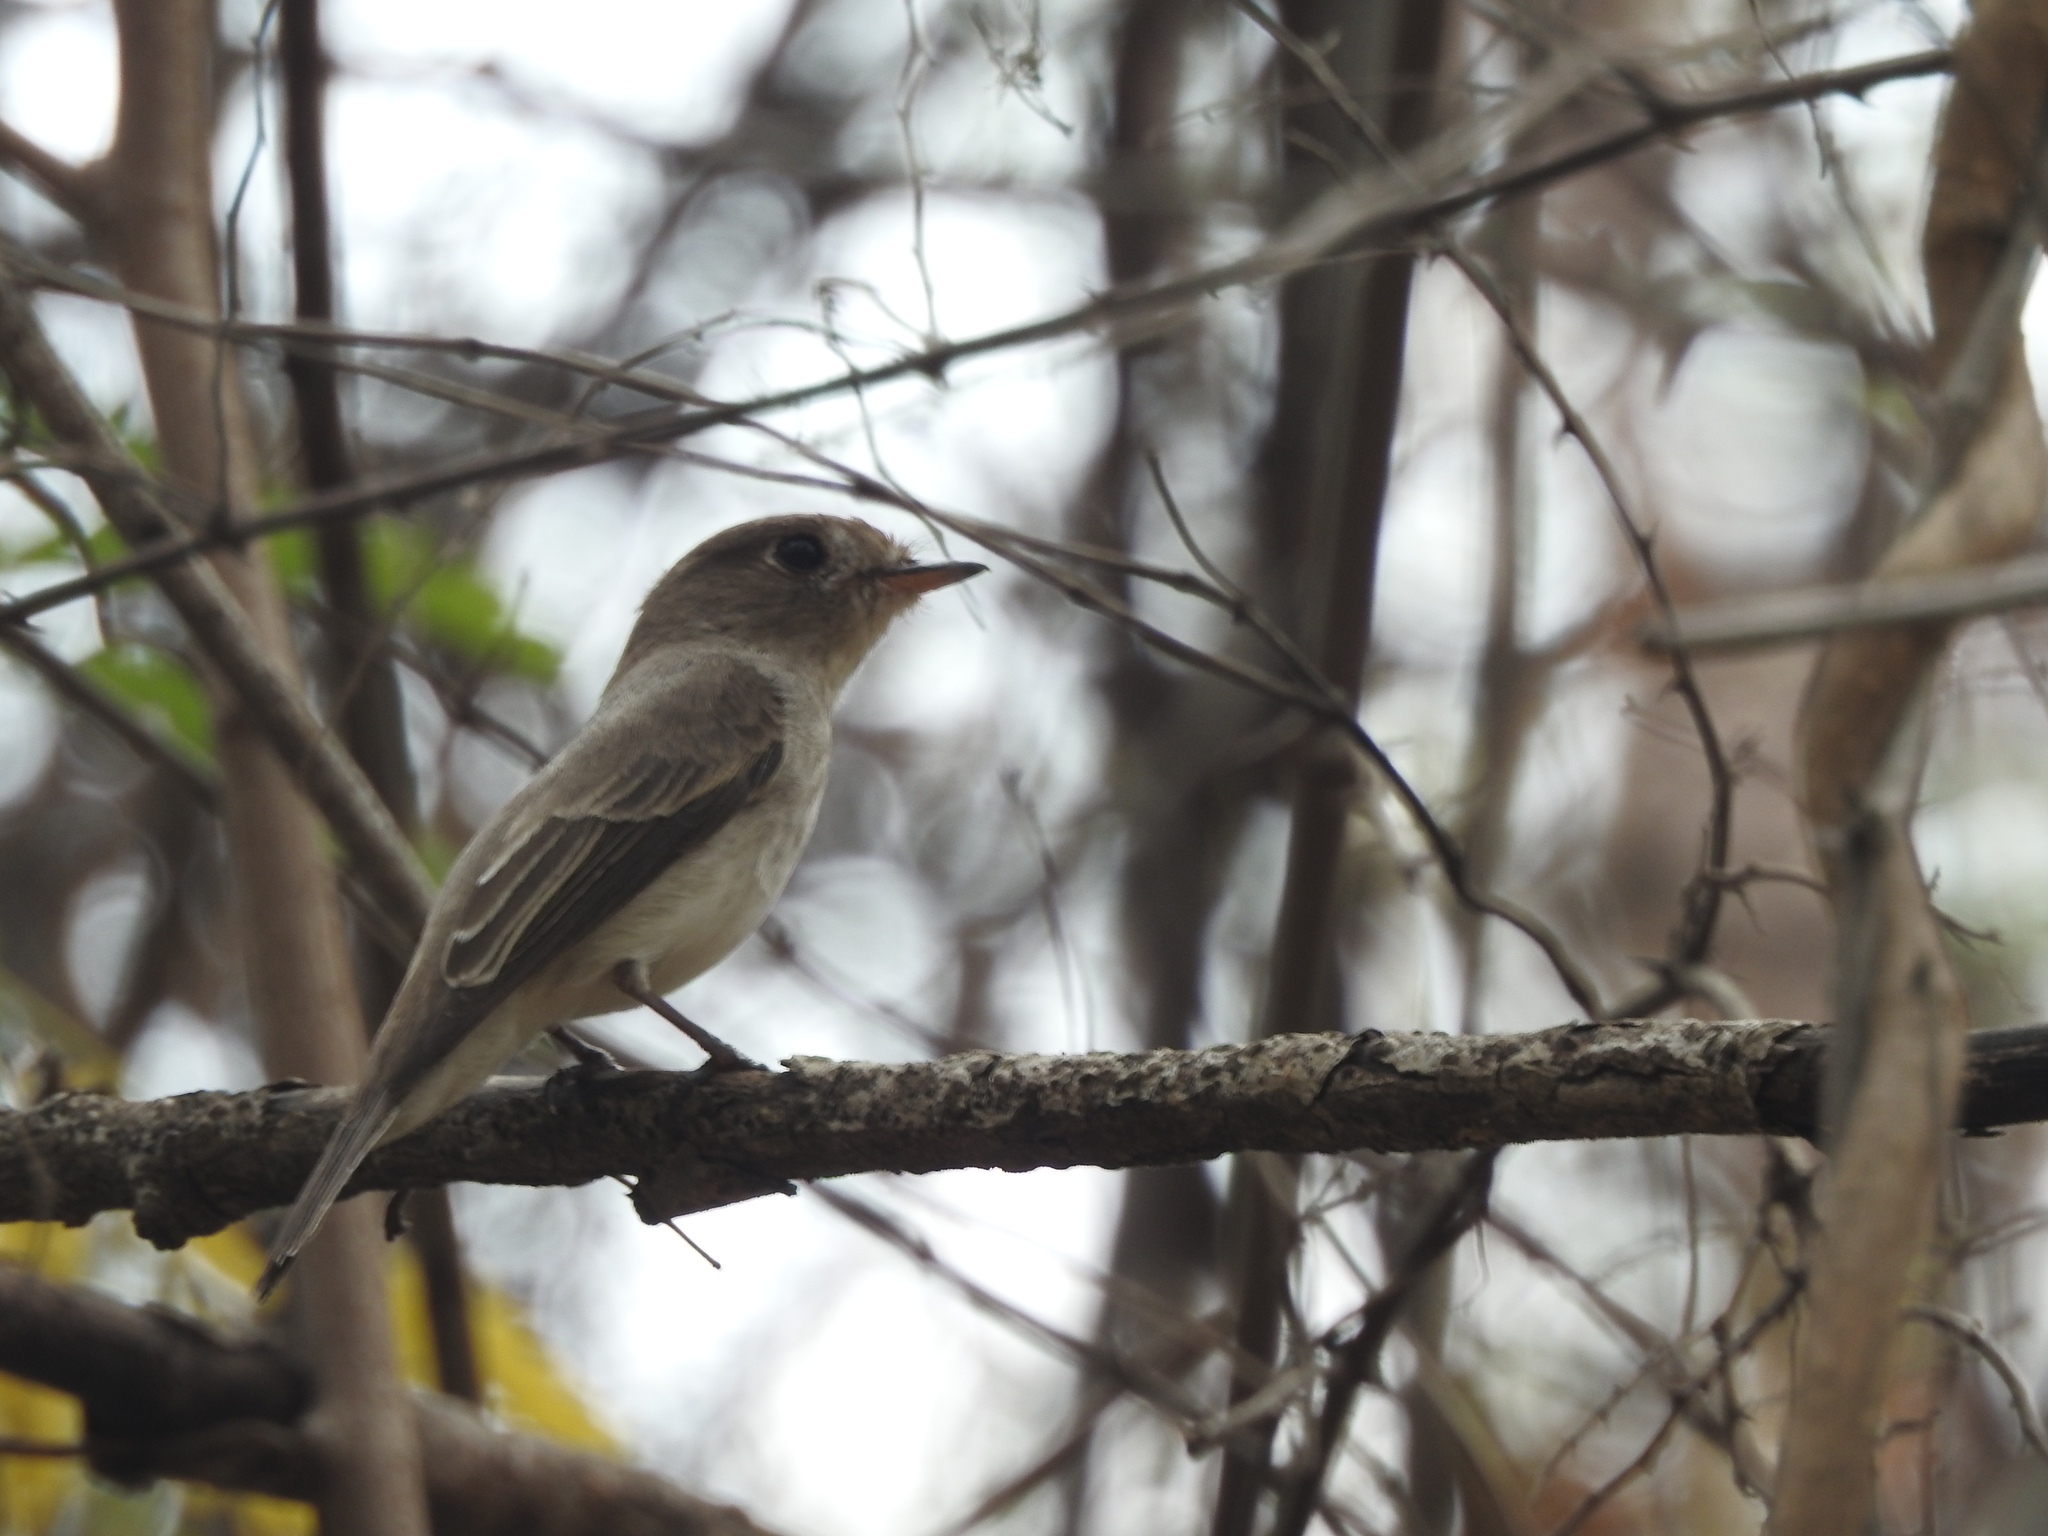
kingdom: Animalia
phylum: Chordata
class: Aves
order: Passeriformes
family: Muscicapidae
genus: Muscicapa
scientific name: Muscicapa latirostris
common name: Asian brown flycatcher
